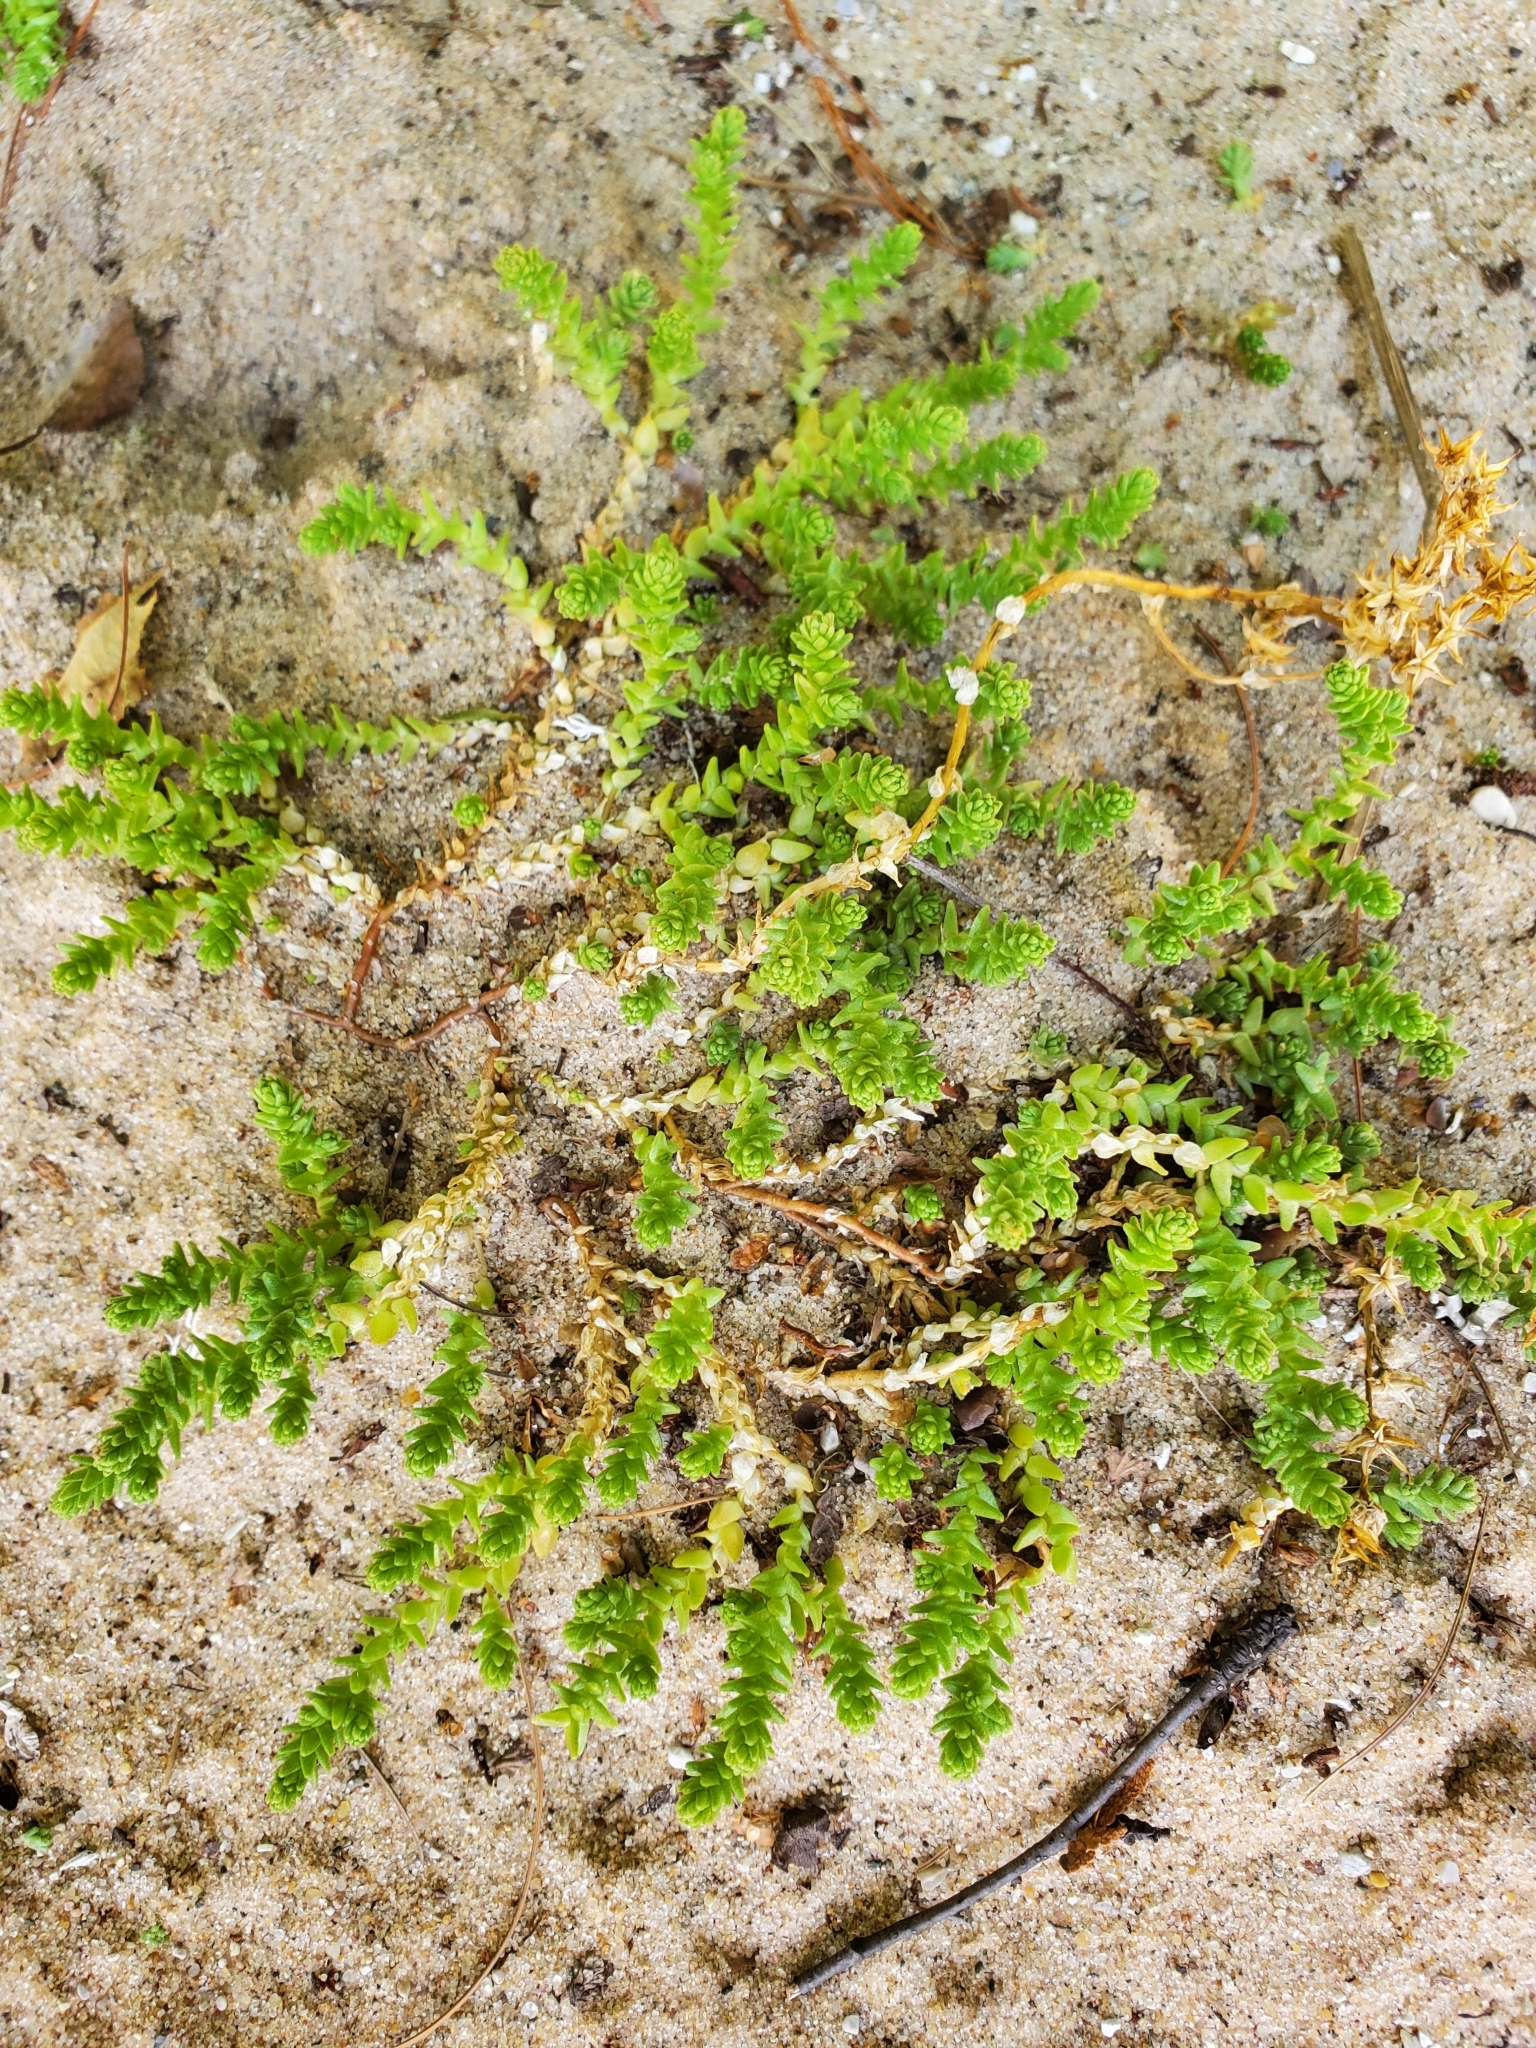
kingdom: Plantae
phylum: Tracheophyta
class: Magnoliopsida
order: Saxifragales
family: Crassulaceae
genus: Sedum
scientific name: Sedum acre
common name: Biting stonecrop
